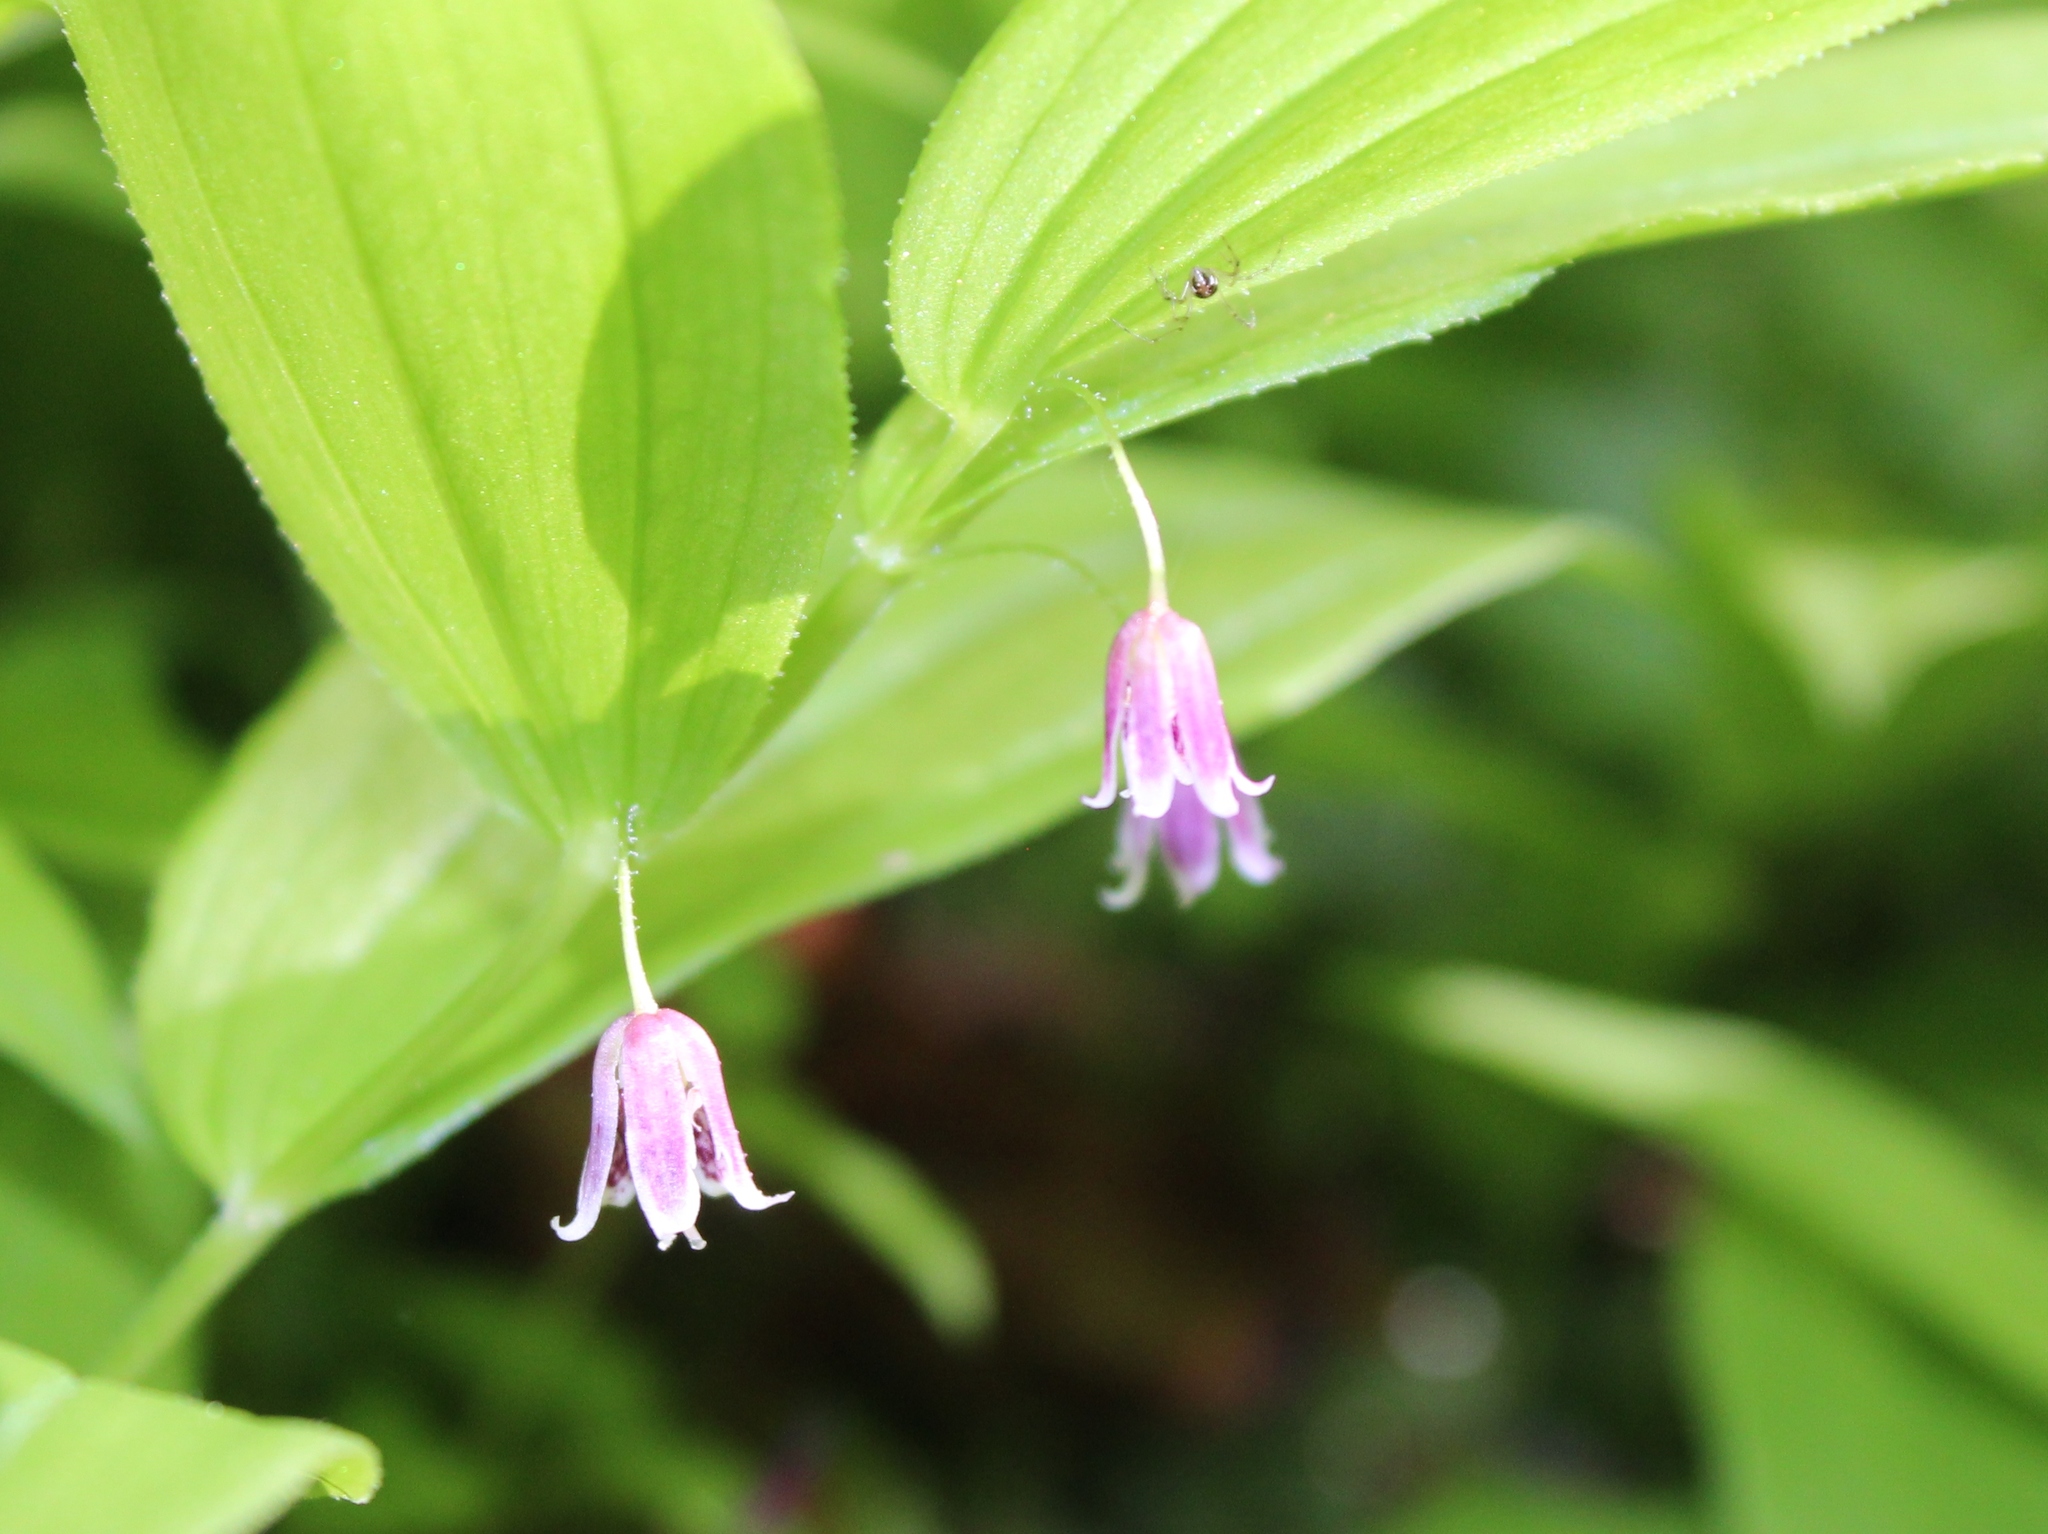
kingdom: Plantae
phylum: Tracheophyta
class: Liliopsida
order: Liliales
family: Liliaceae
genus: Streptopus
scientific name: Streptopus lanceolatus
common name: Rose mandarin
